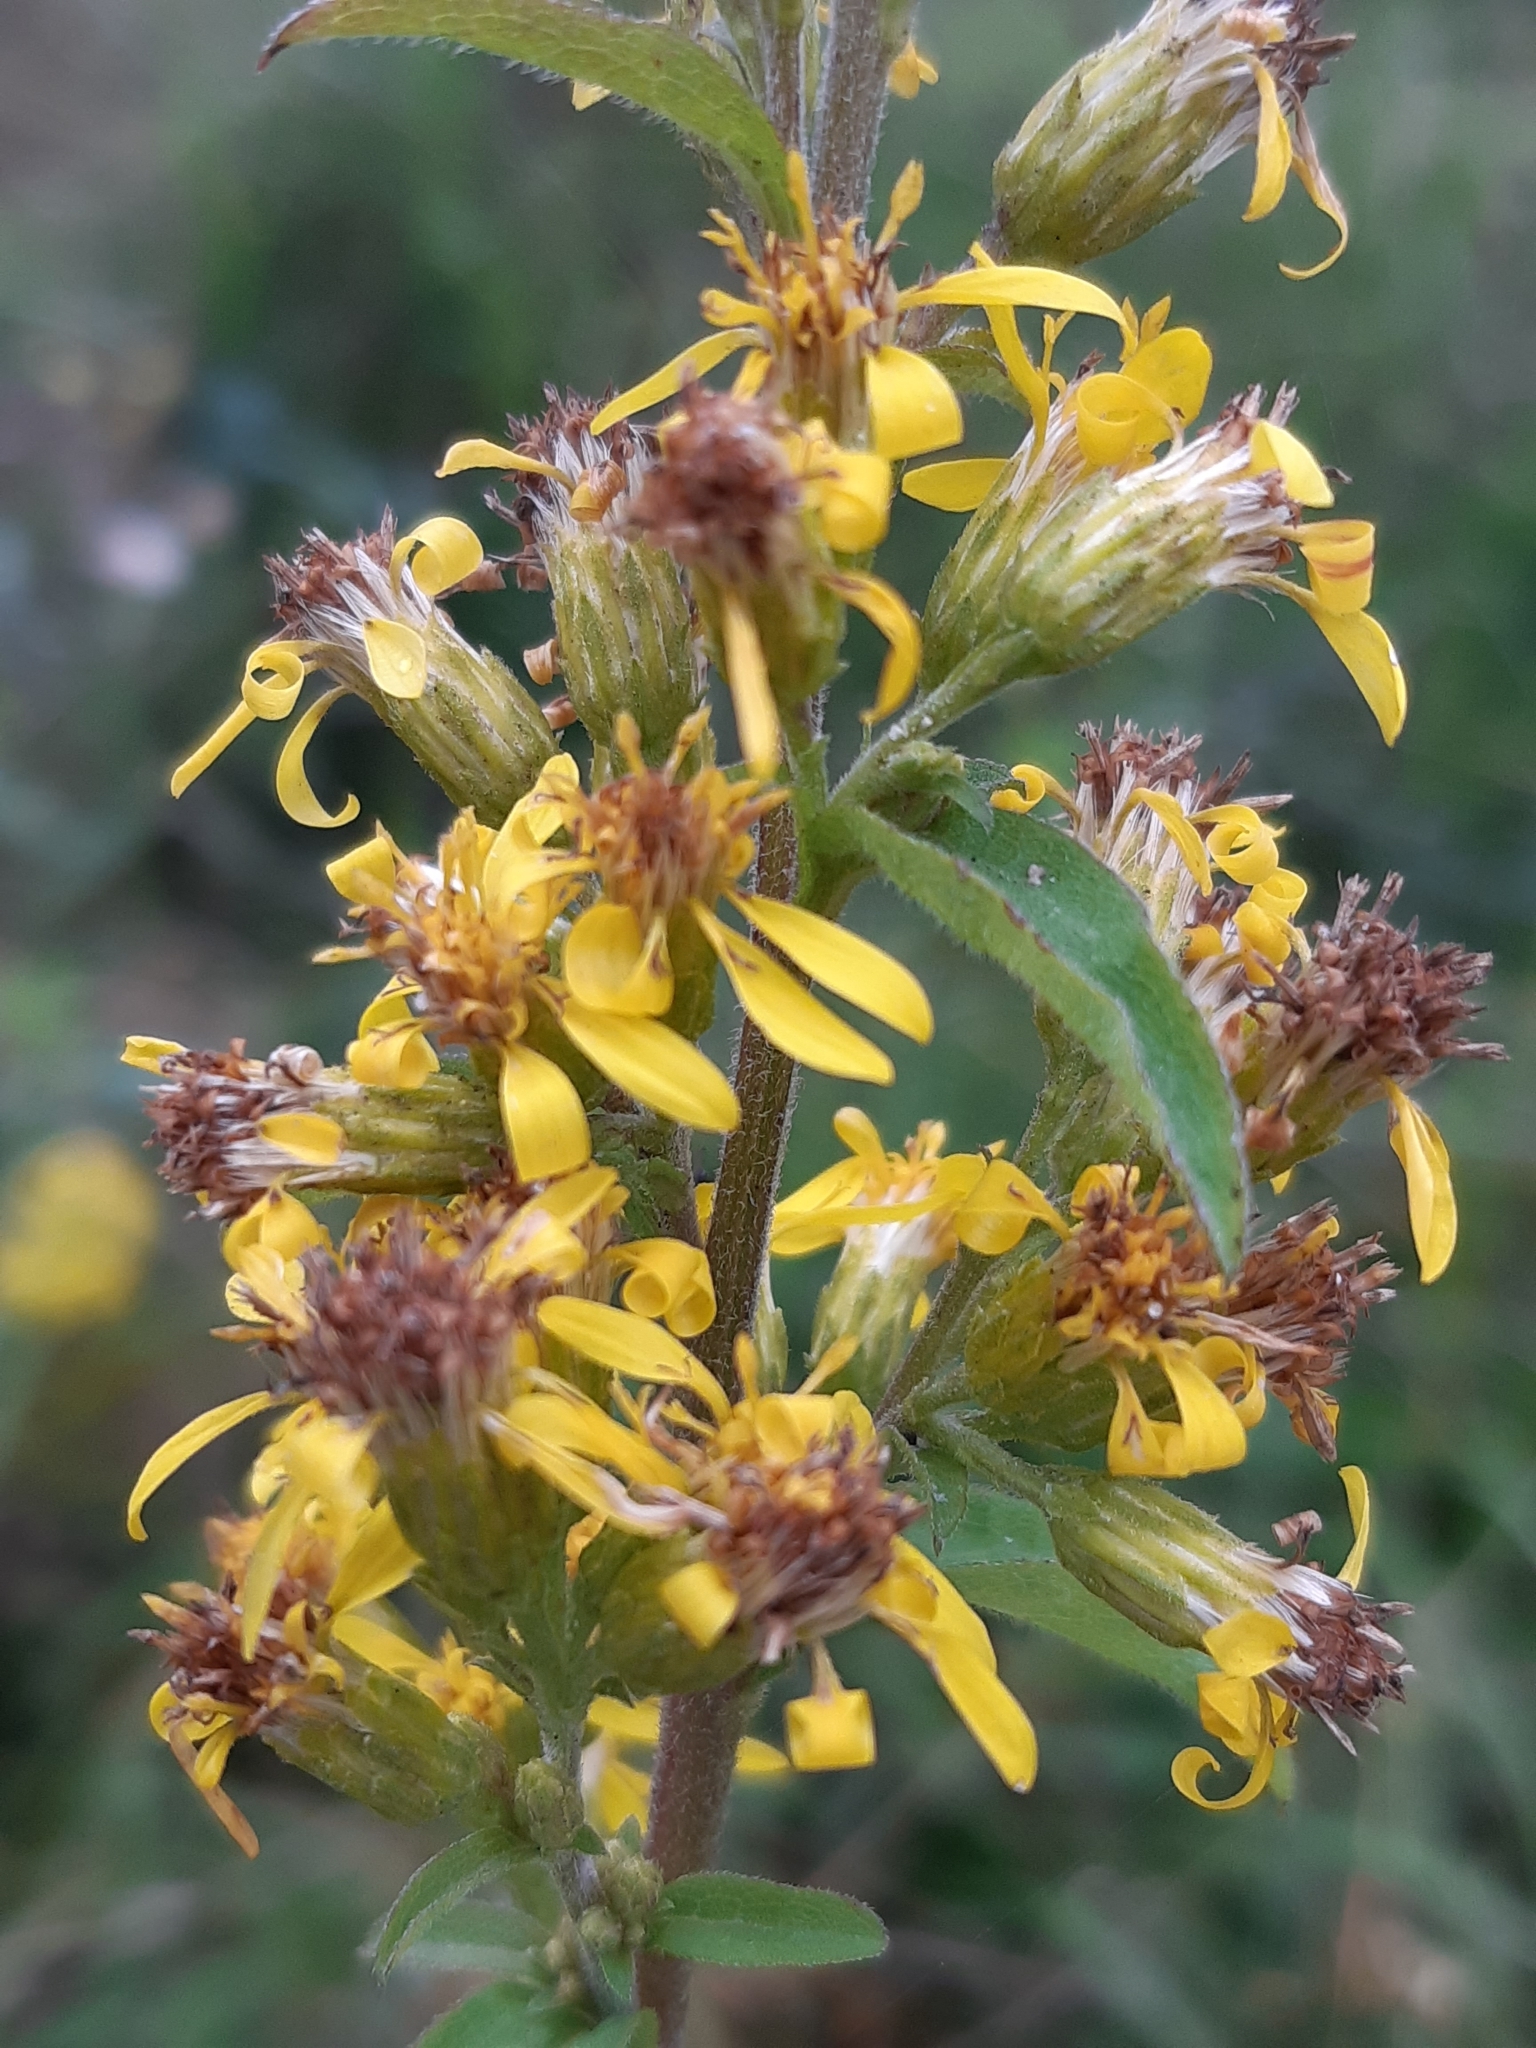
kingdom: Plantae
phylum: Tracheophyta
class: Magnoliopsida
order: Asterales
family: Asteraceae
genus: Solidago
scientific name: Solidago virgaurea
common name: Goldenrod
